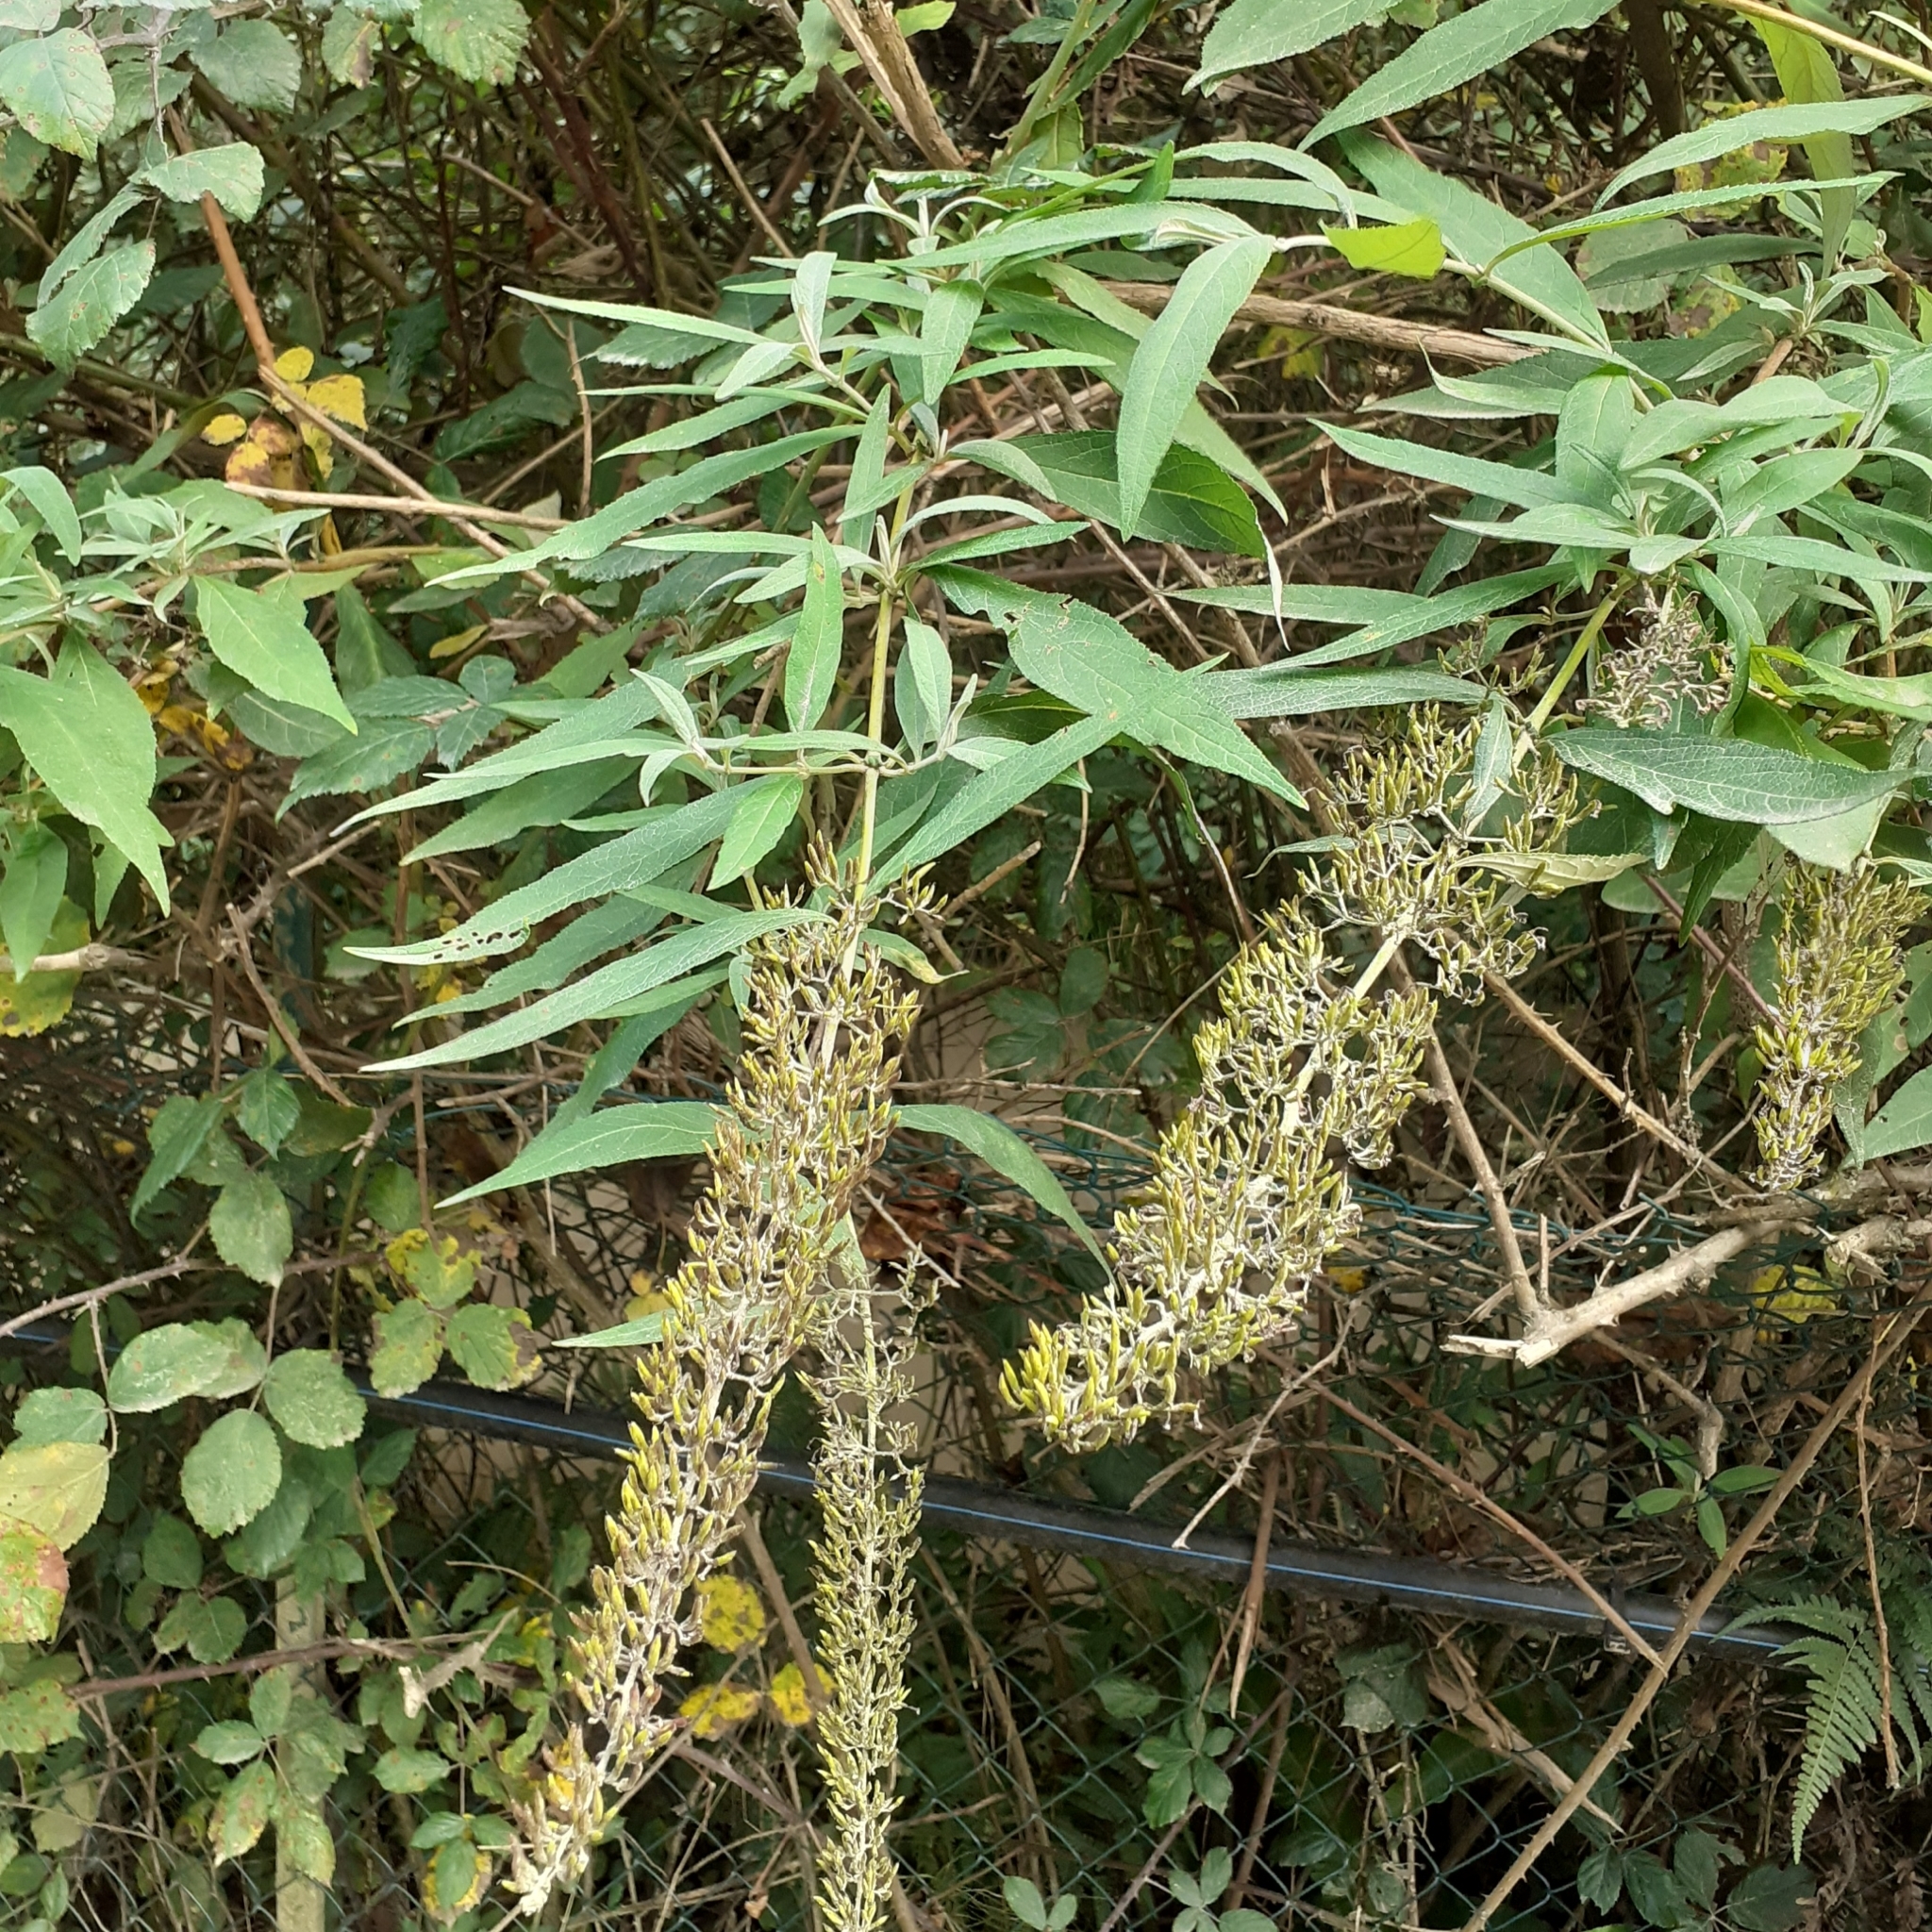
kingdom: Plantae
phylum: Tracheophyta
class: Magnoliopsida
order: Lamiales
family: Scrophulariaceae
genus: Buddleja
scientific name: Buddleja davidii
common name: Butterfly-bush
